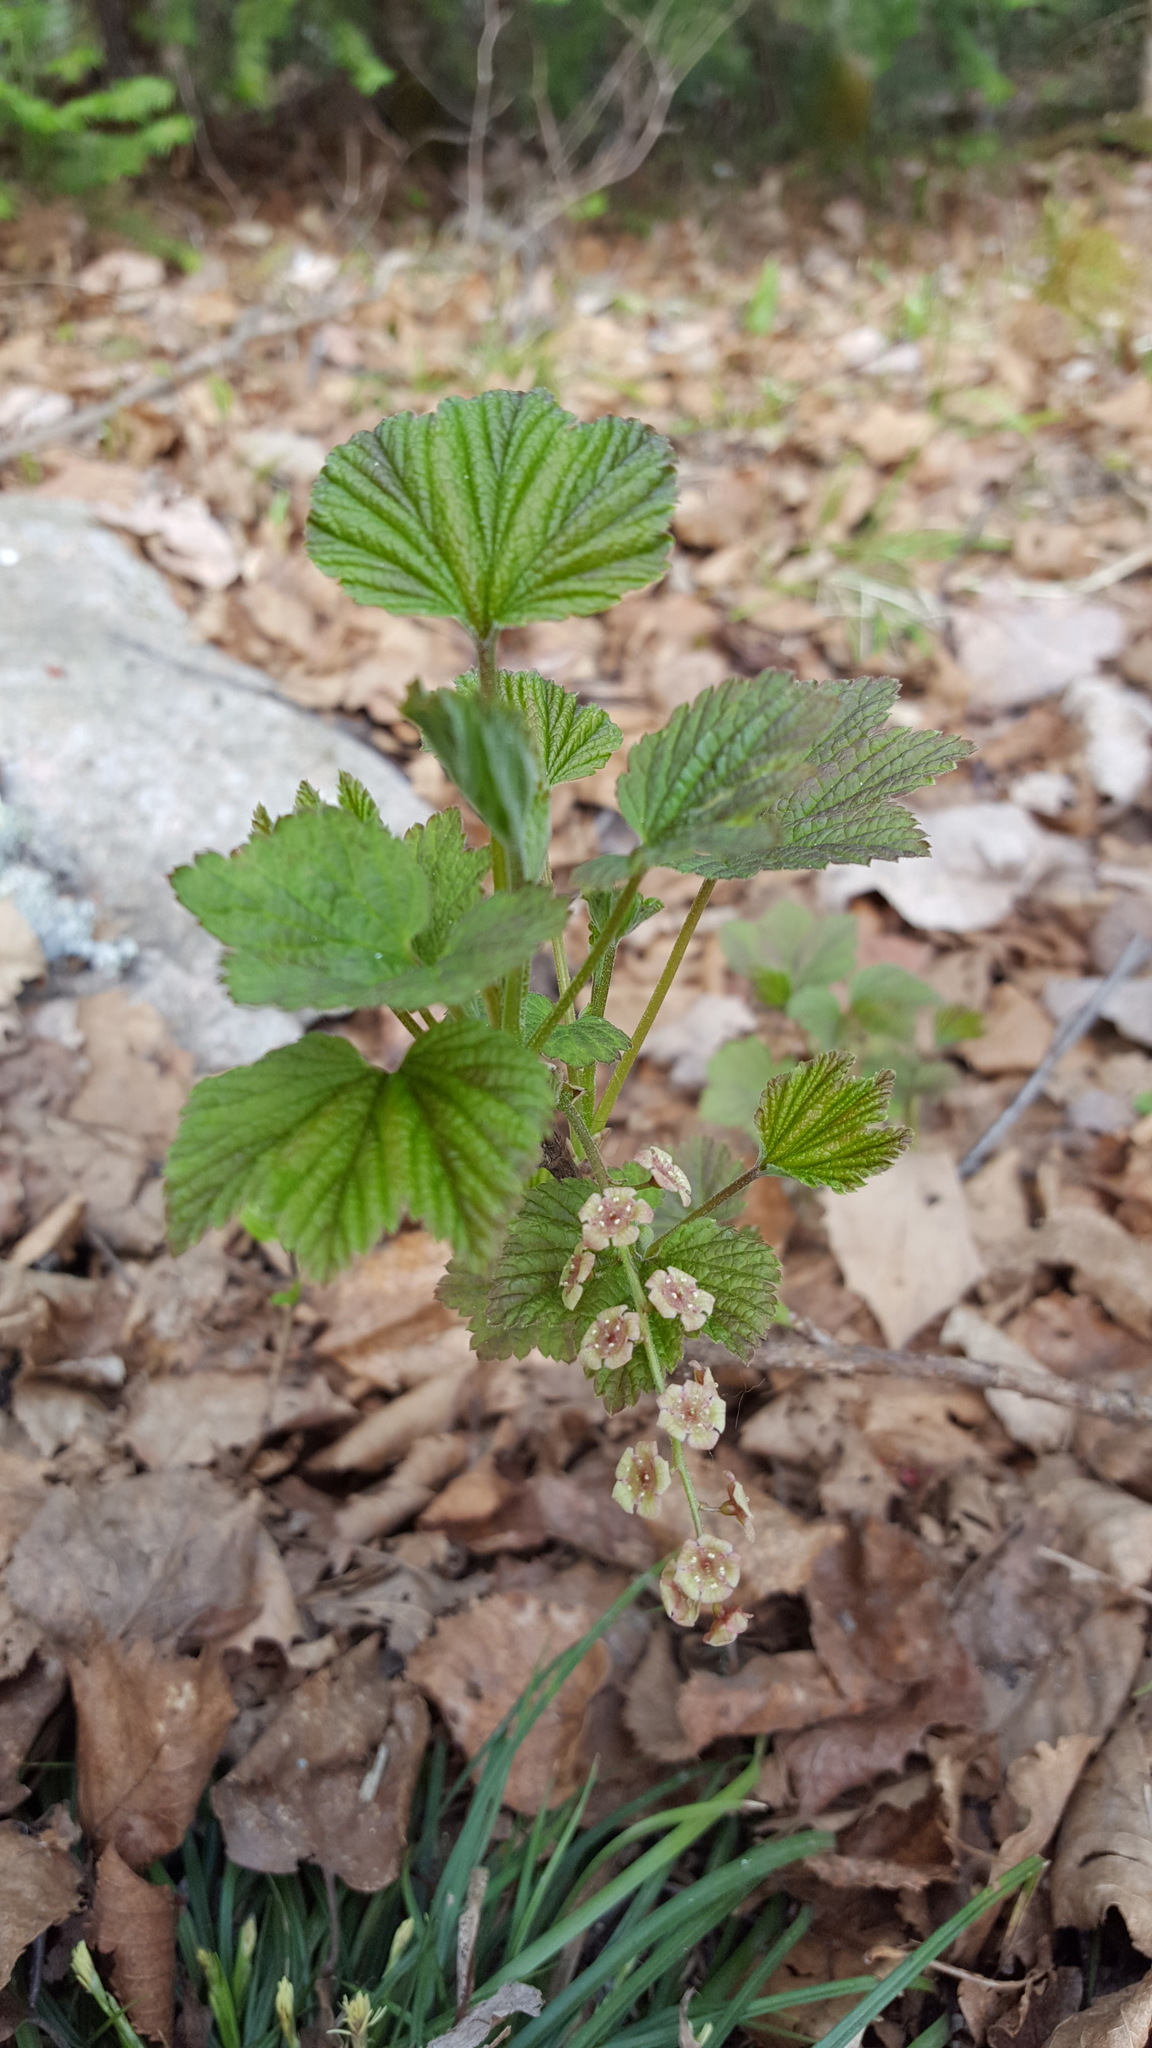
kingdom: Plantae
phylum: Tracheophyta
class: Magnoliopsida
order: Saxifragales
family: Grossulariaceae
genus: Ribes
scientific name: Ribes triste
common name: Swamp red currant
